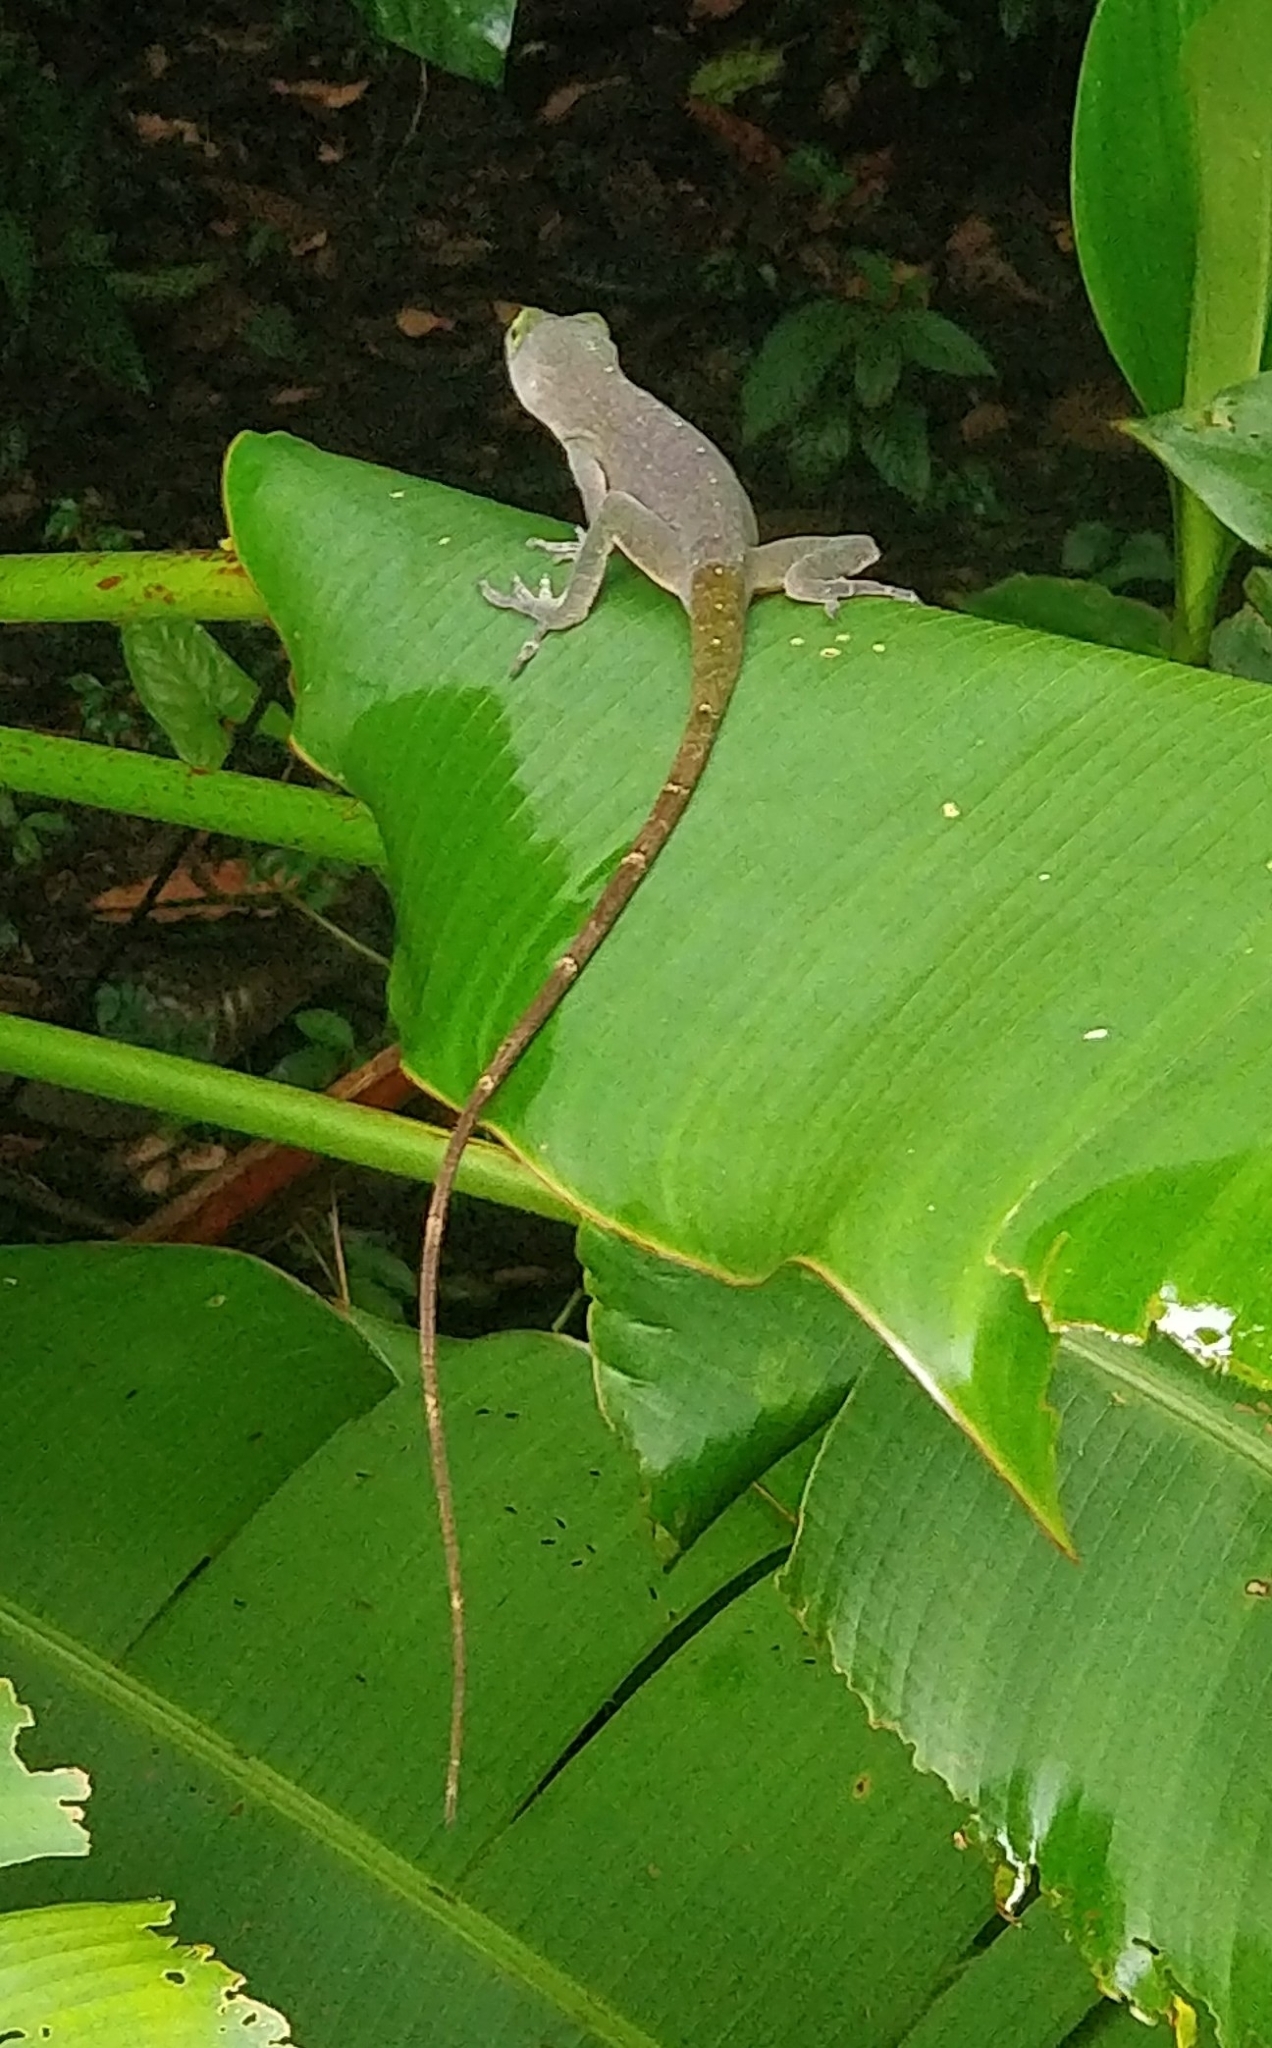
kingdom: Animalia
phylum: Chordata
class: Squamata
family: Dactyloidae
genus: Anolis
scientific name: Anolis biporcatus
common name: Giant green anole
